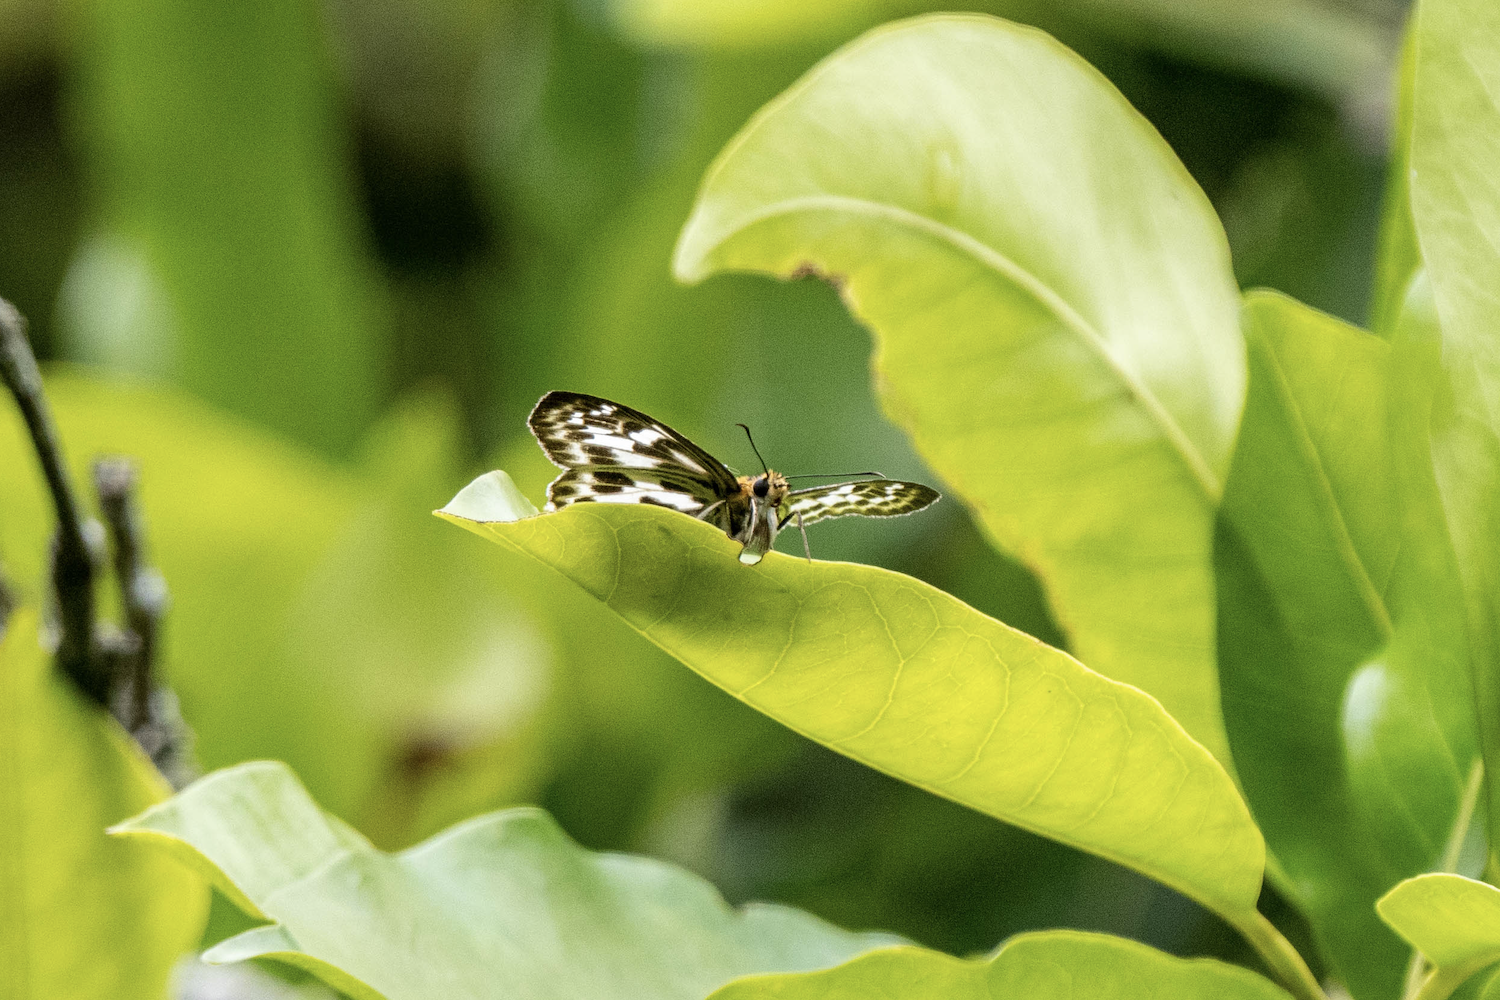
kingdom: Animalia
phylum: Arthropoda
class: Insecta
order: Lepidoptera
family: Hesperiidae
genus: Abraximorpha
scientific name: Abraximorpha davidii
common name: Magpie flat
